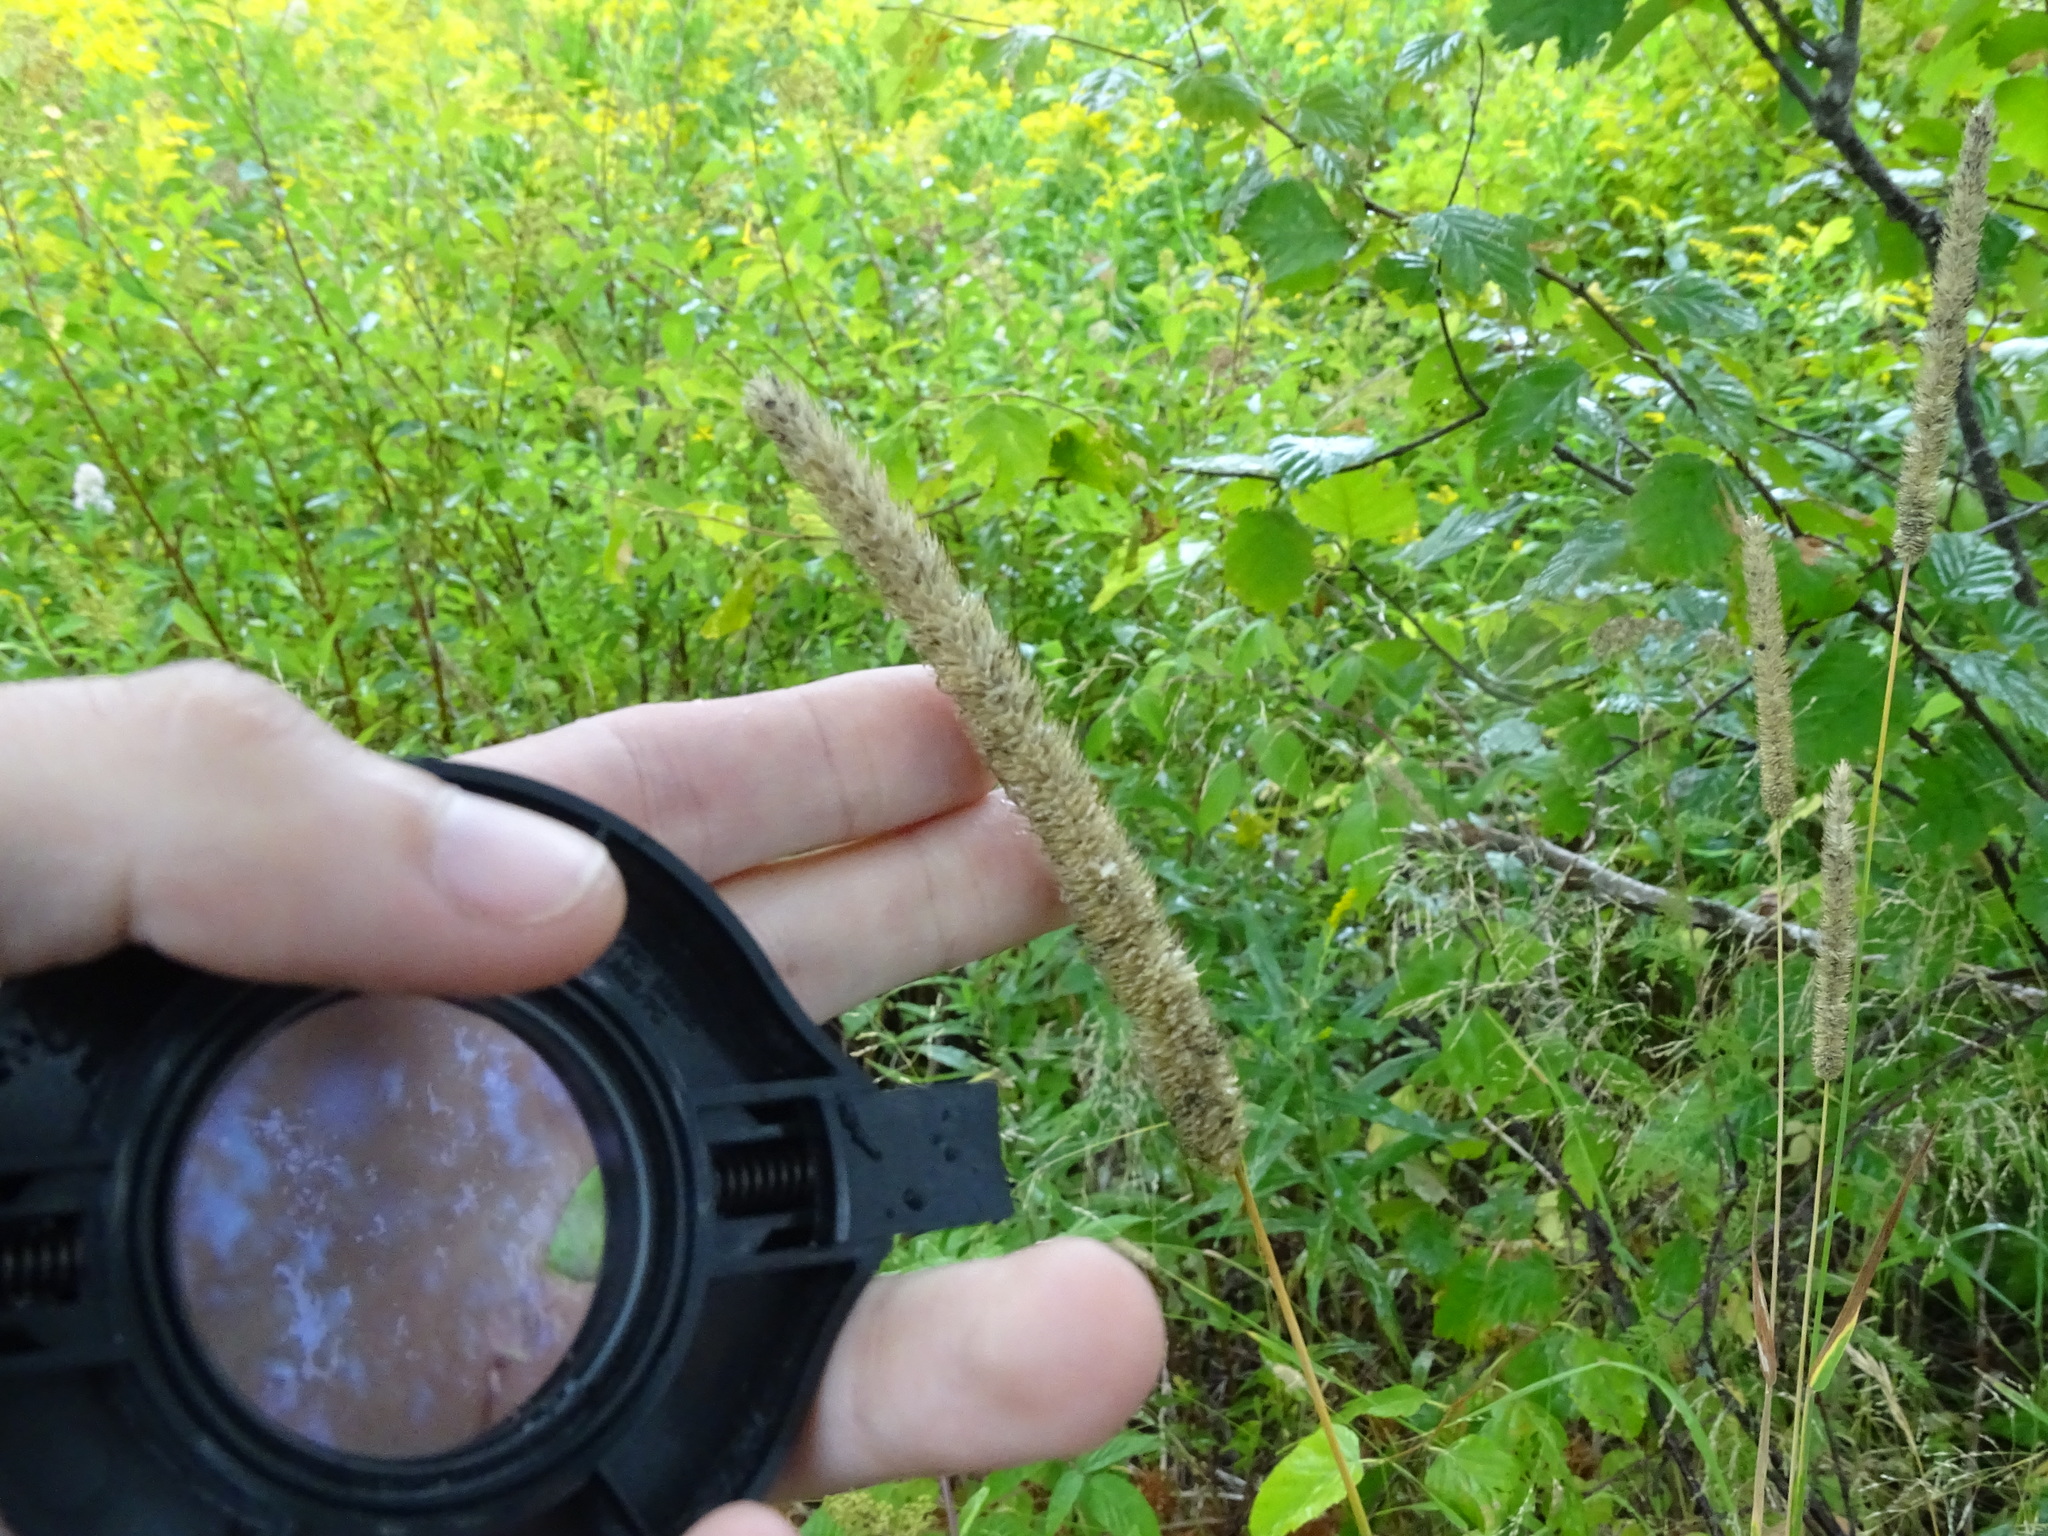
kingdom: Plantae
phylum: Tracheophyta
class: Liliopsida
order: Poales
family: Poaceae
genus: Phleum
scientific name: Phleum pratense
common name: Timothy grass
